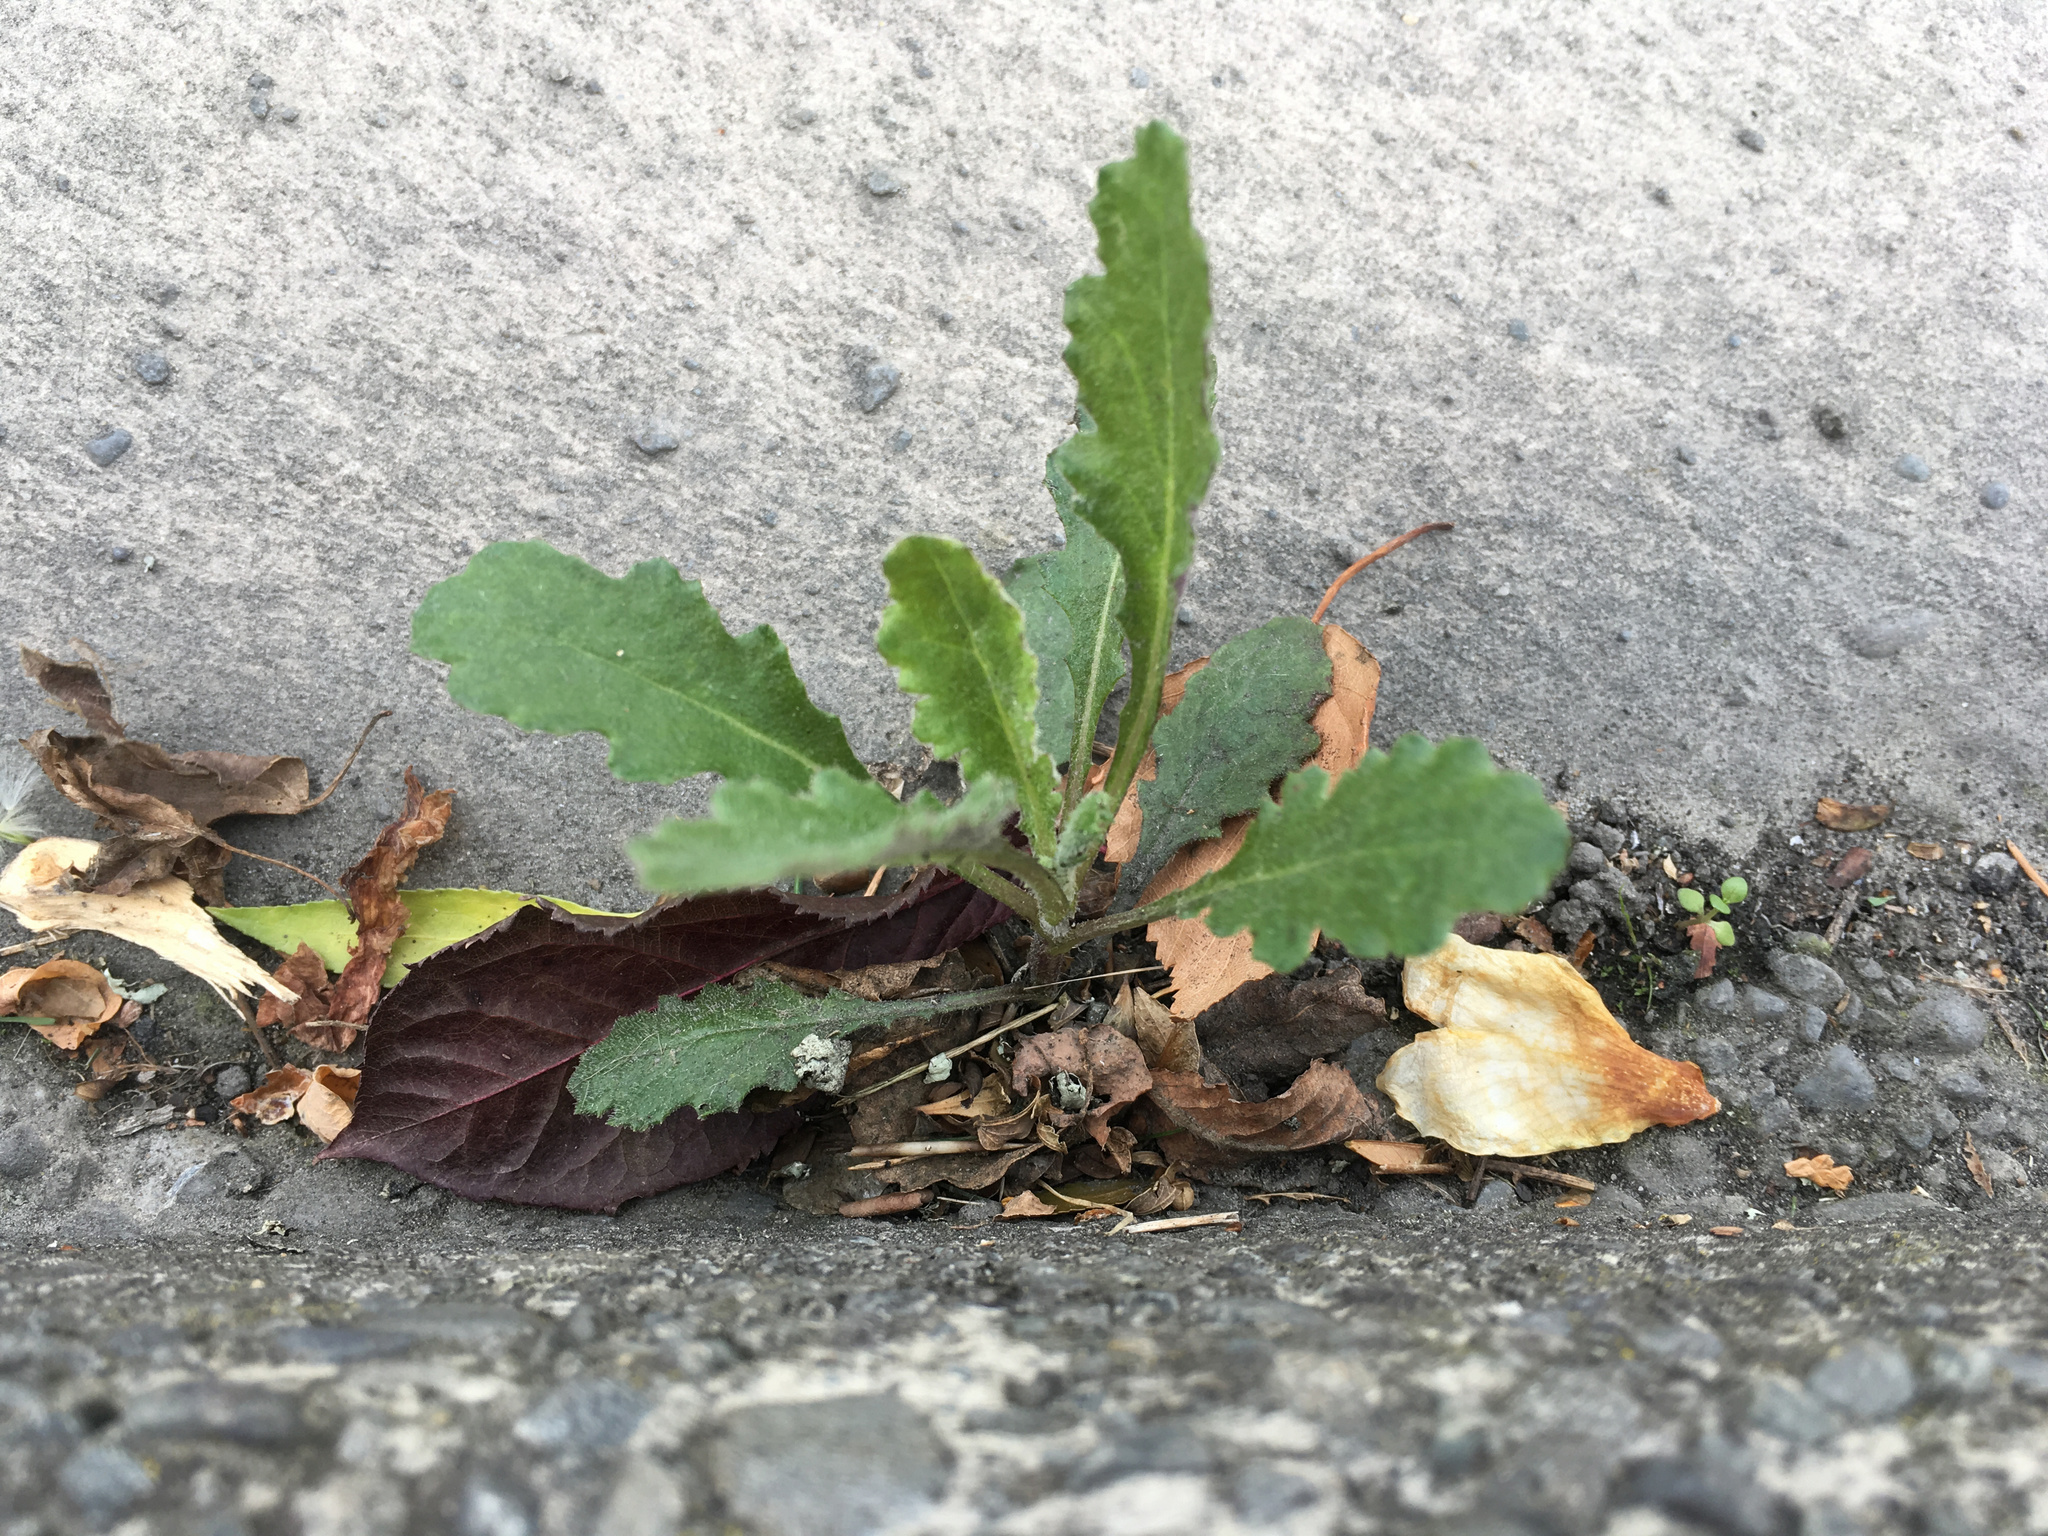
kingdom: Plantae
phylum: Tracheophyta
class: Magnoliopsida
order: Asterales
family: Asteraceae
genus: Senecio
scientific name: Senecio glomeratus
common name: Cutleaf burnweed
